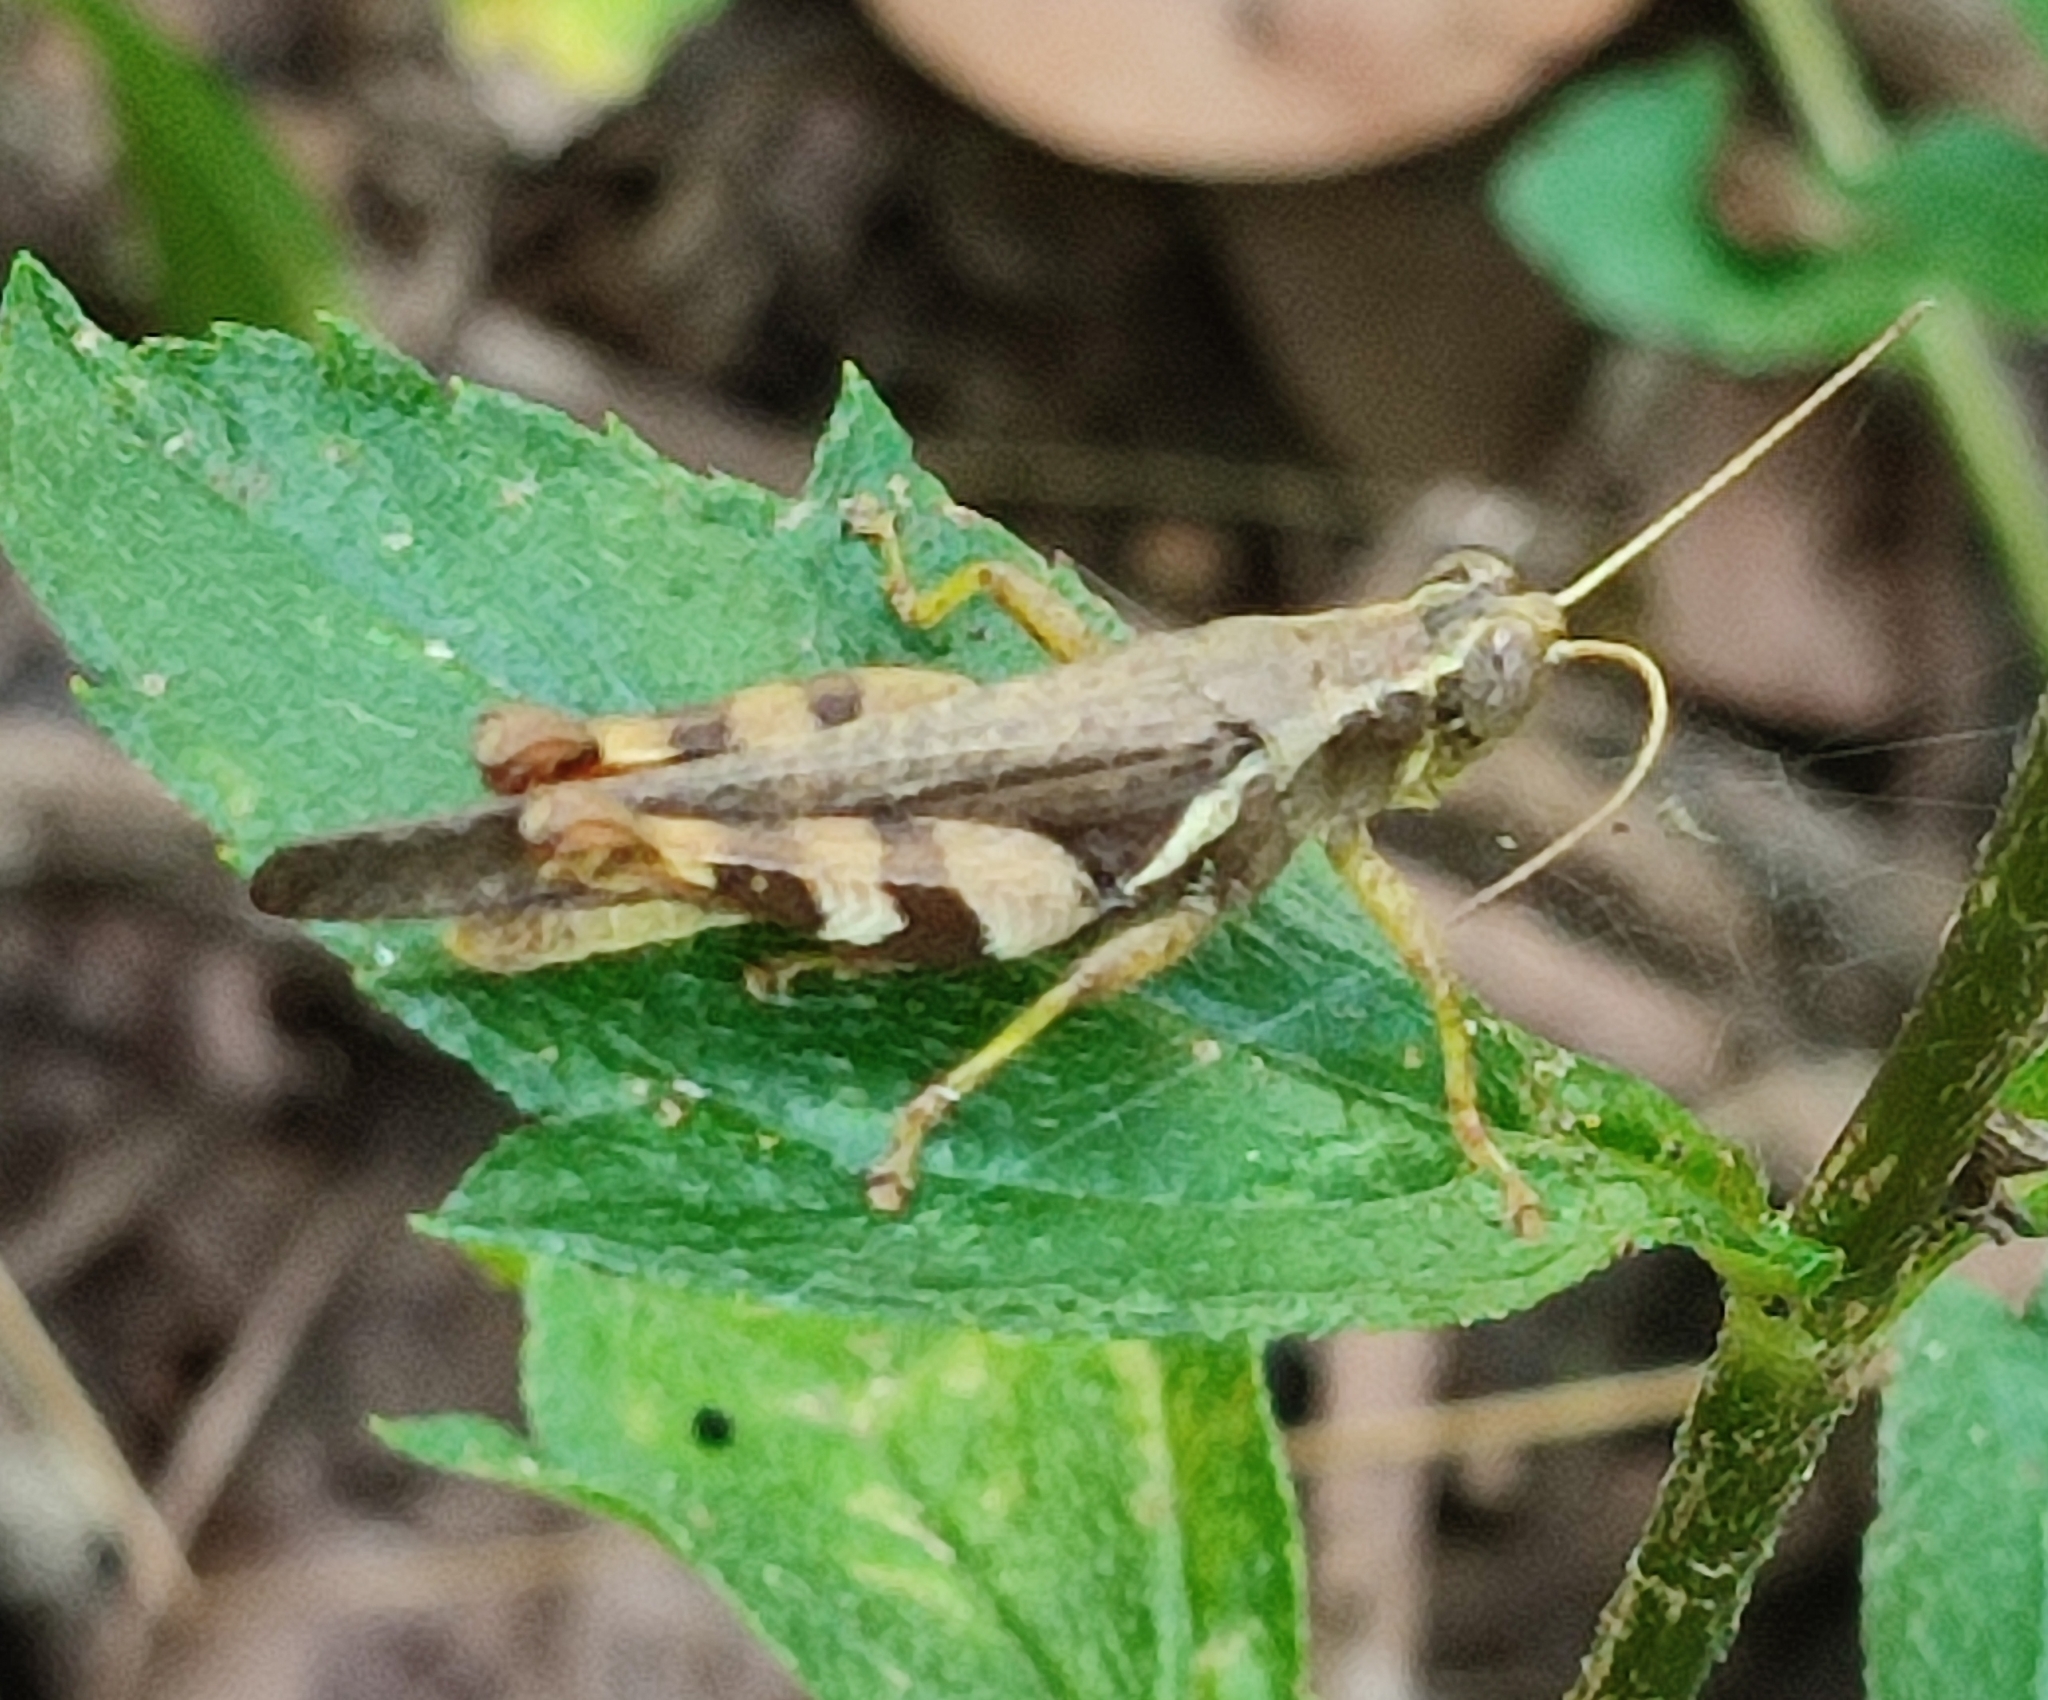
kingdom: Animalia
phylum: Arthropoda
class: Insecta
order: Orthoptera
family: Acrididae
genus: Xenocatantops
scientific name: Xenocatantops humile
